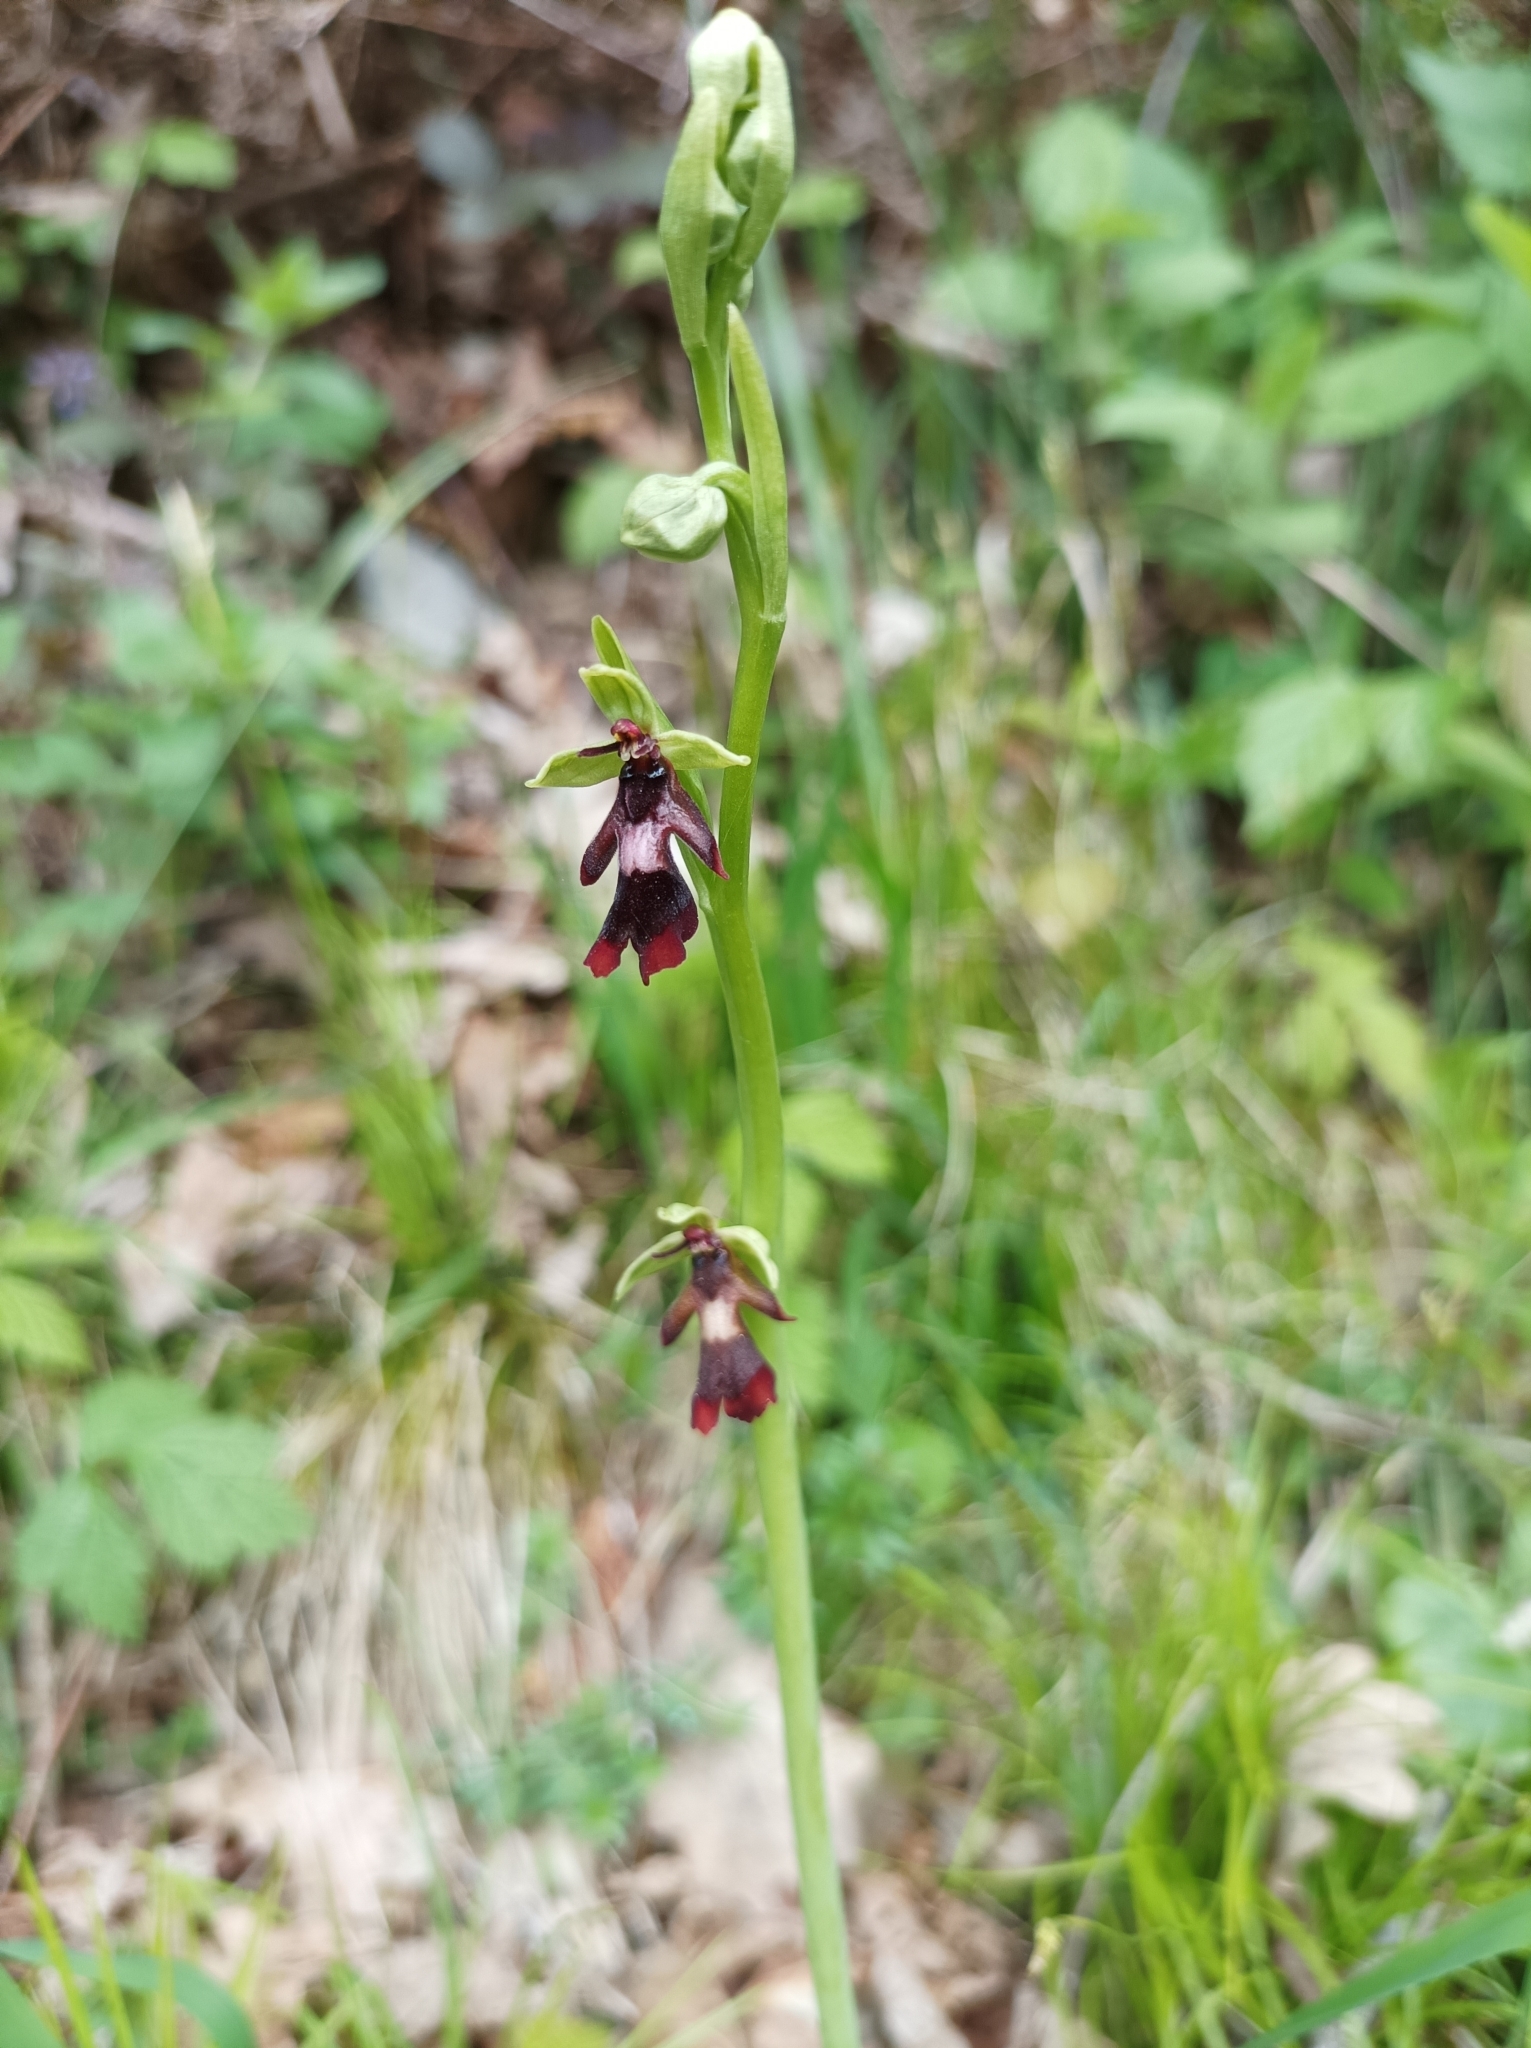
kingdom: Plantae
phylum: Tracheophyta
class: Liliopsida
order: Asparagales
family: Orchidaceae
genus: Ophrys
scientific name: Ophrys insectifera
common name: Fly orchid
